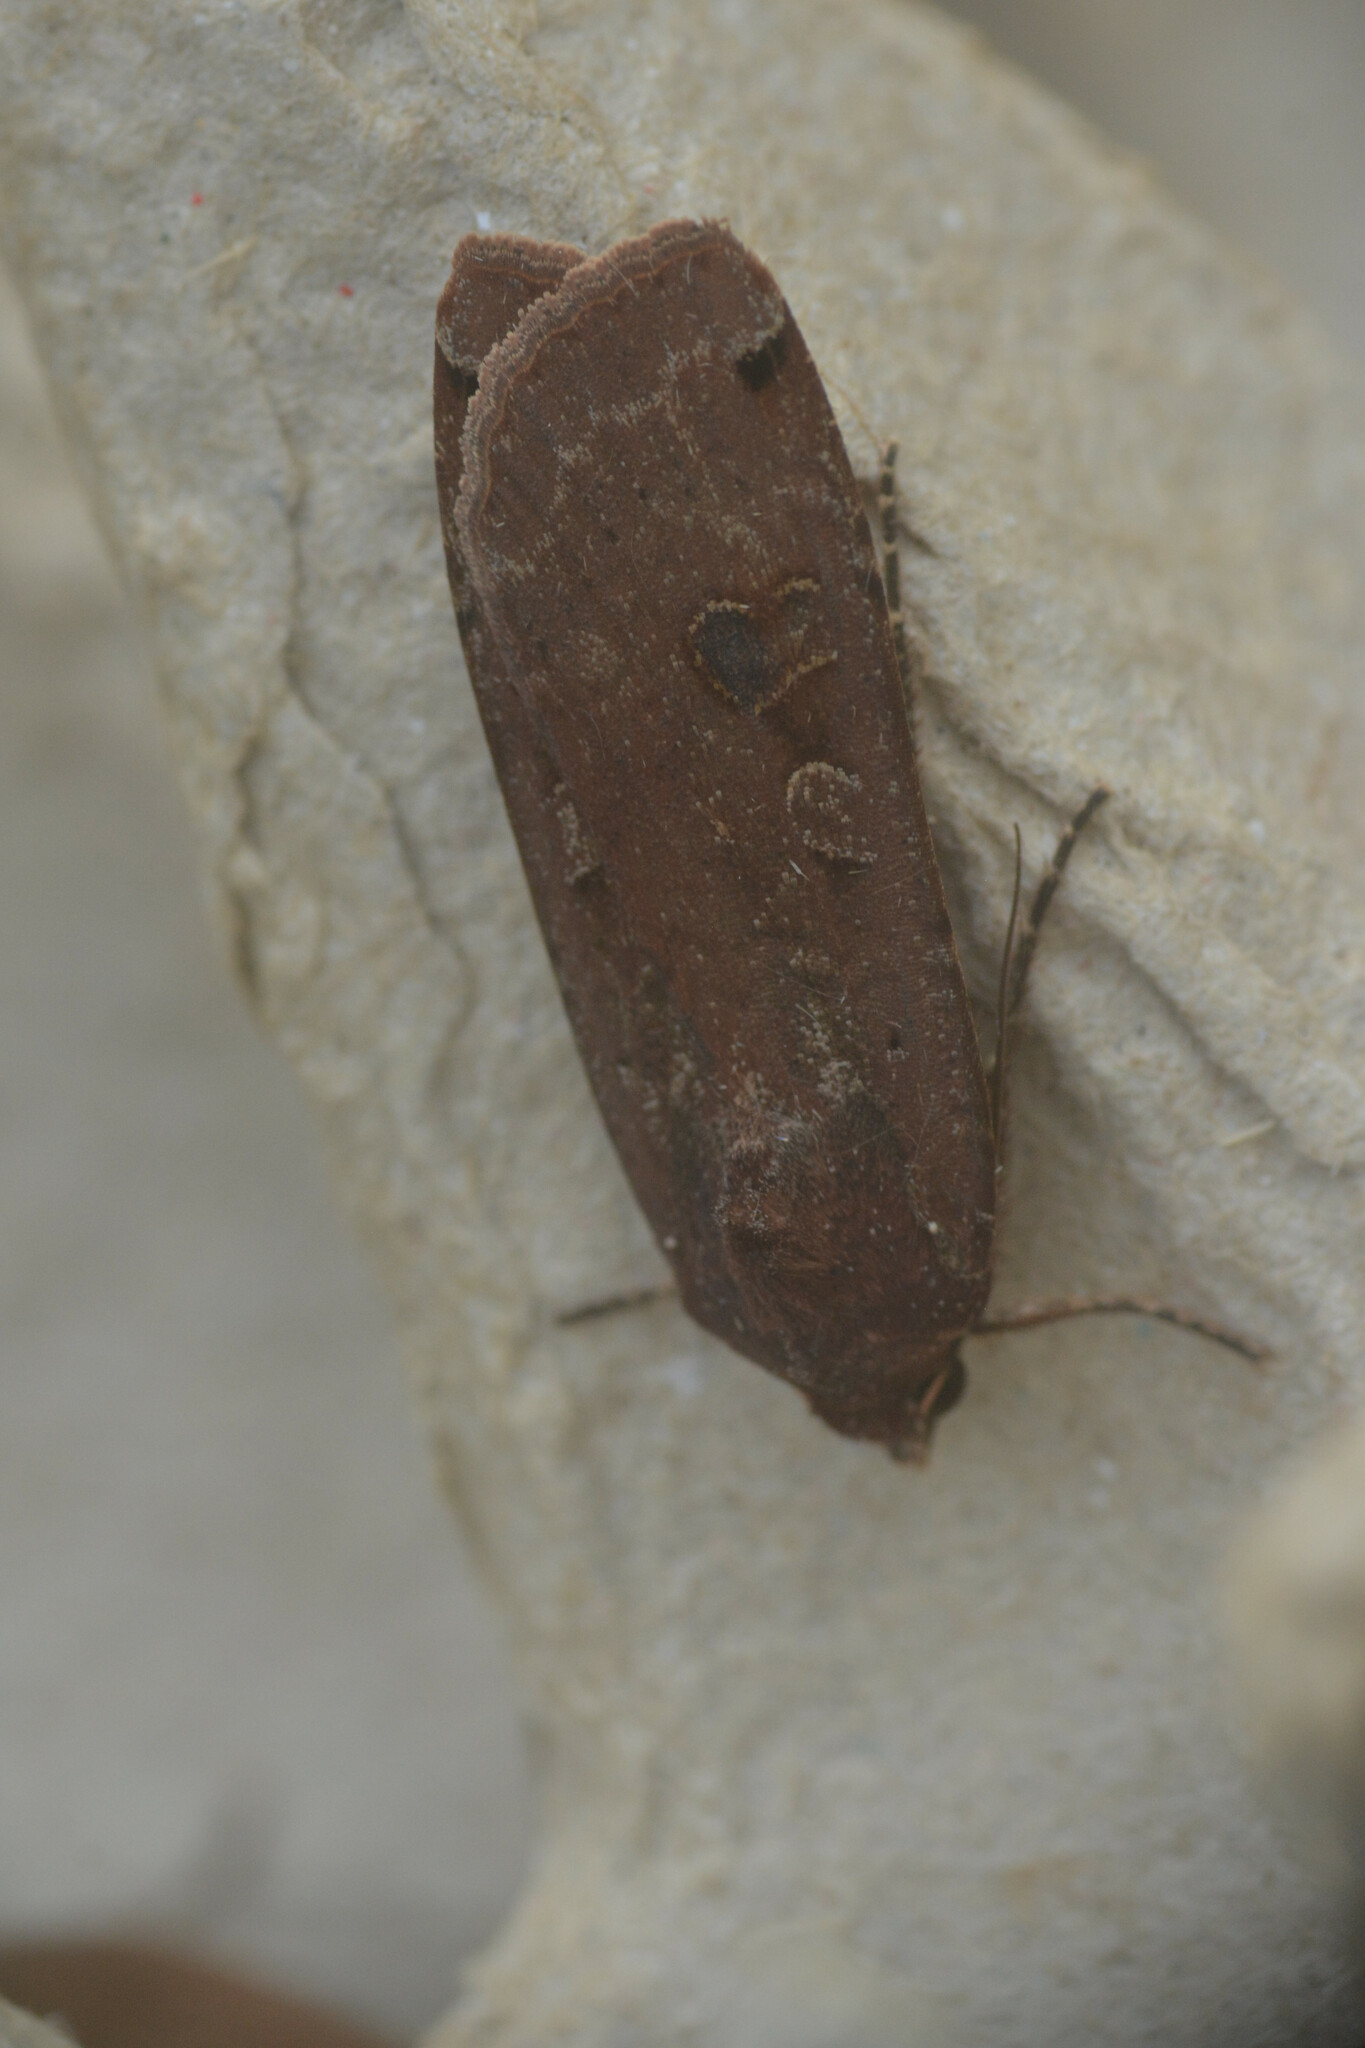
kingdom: Animalia
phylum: Arthropoda
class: Insecta
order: Lepidoptera
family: Noctuidae
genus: Noctua
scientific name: Noctua pronuba
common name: Large yellow underwing
